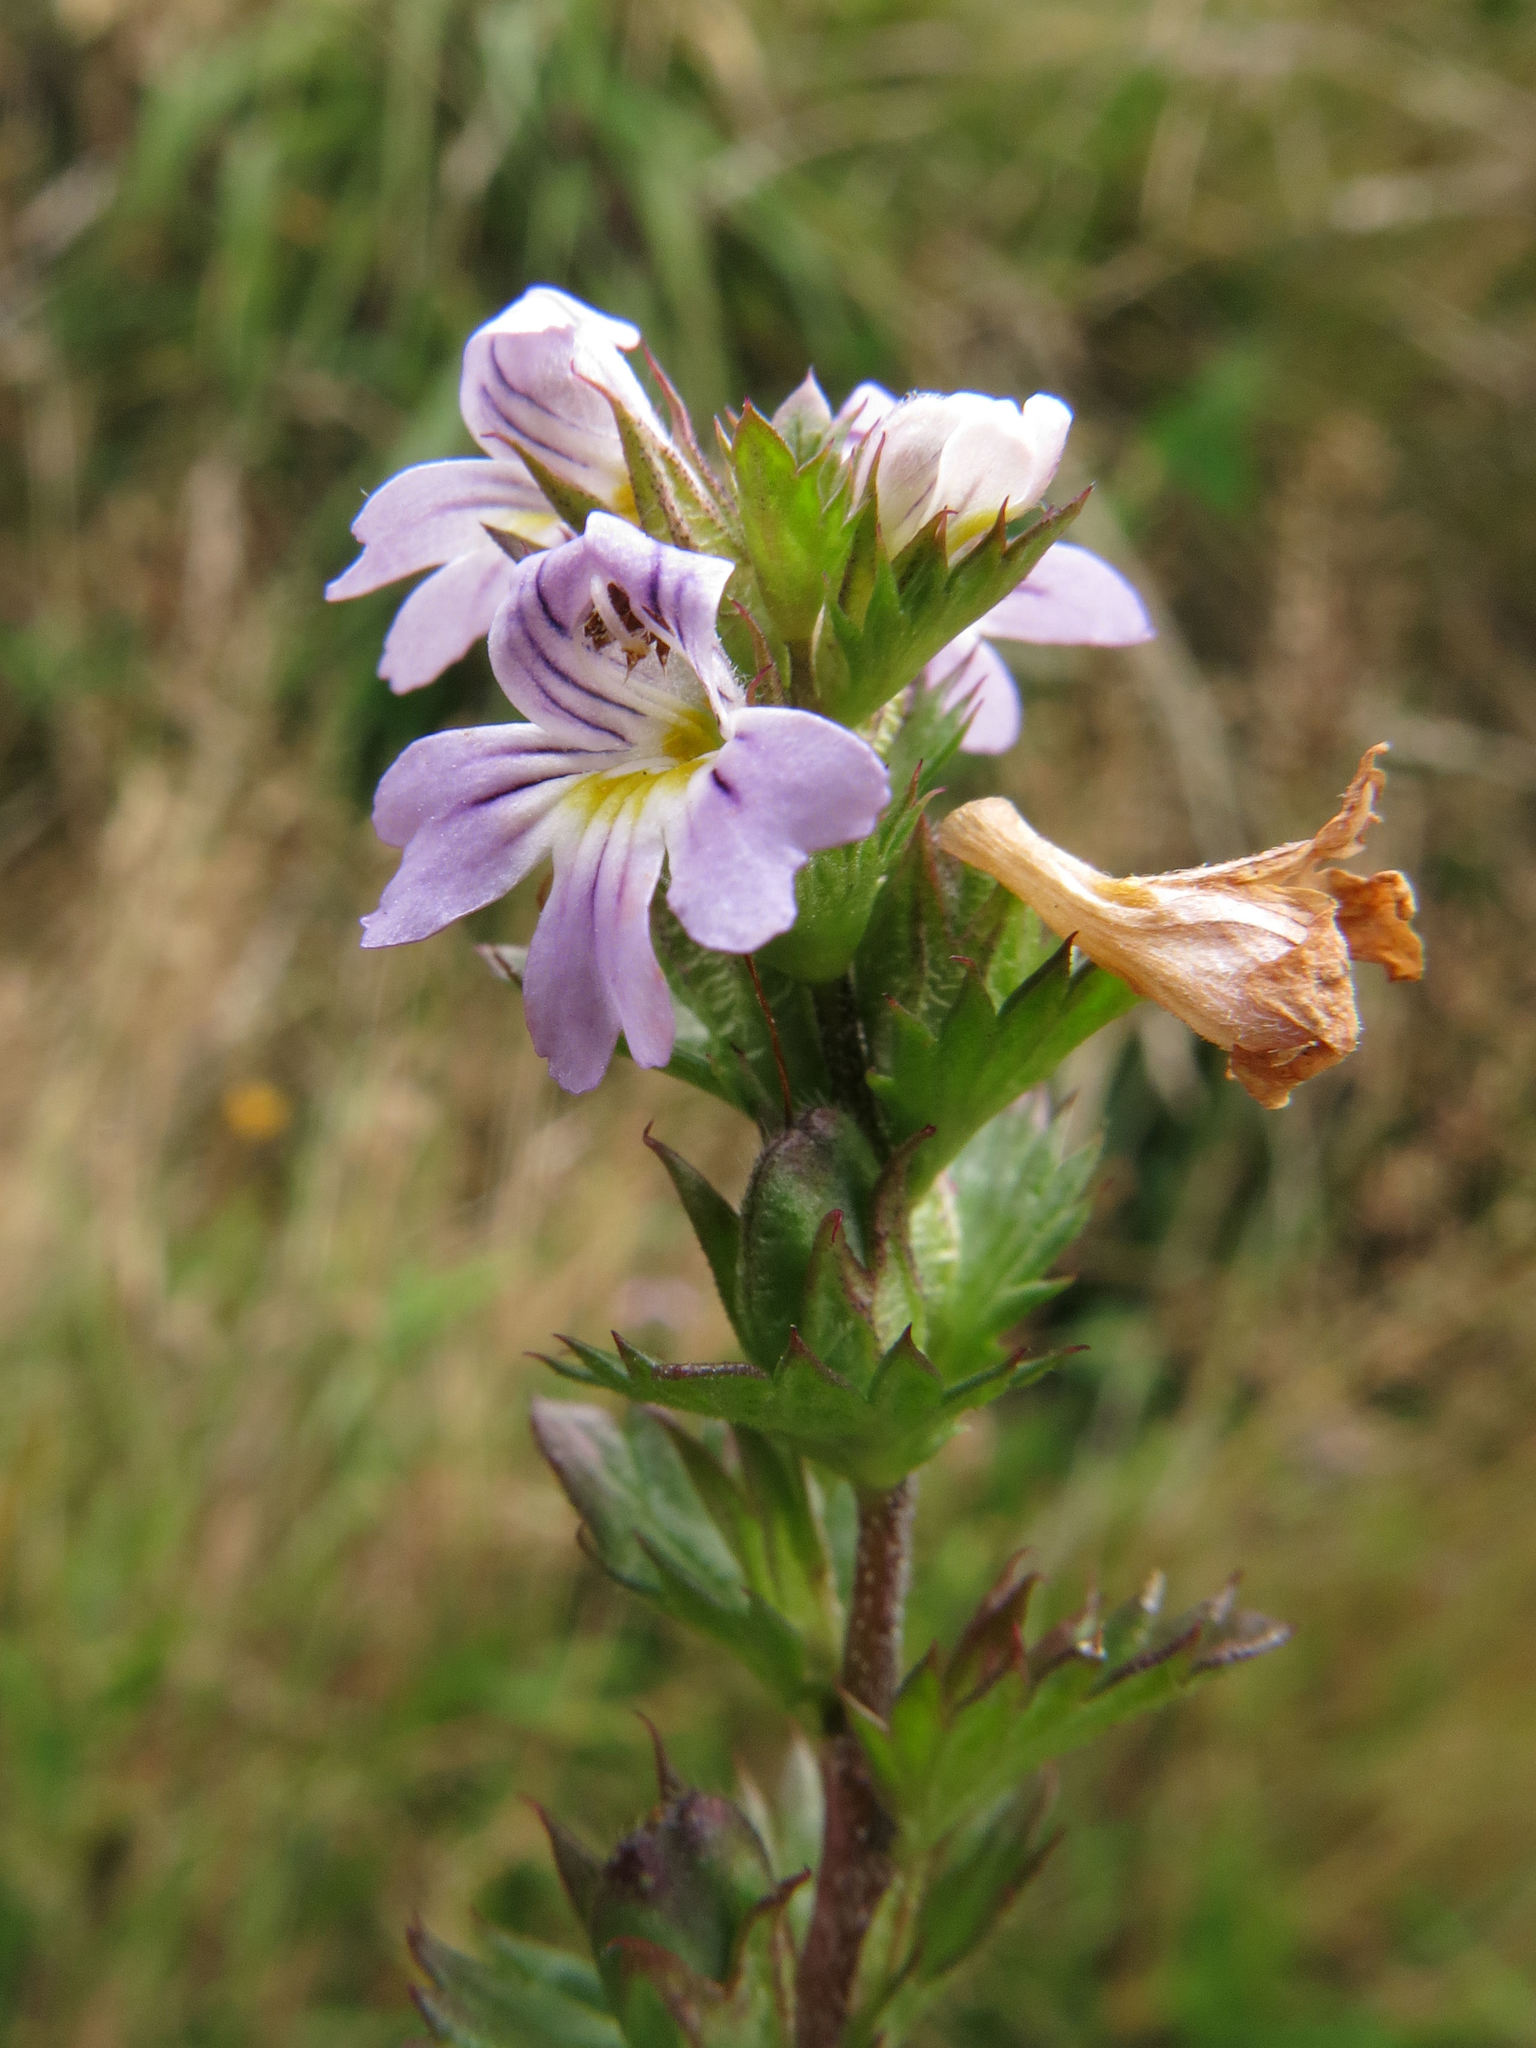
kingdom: Plantae
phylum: Tracheophyta
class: Magnoliopsida
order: Lamiales
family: Orobanchaceae
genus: Euphrasia
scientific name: Euphrasia nemorosa
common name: Common eyebright
